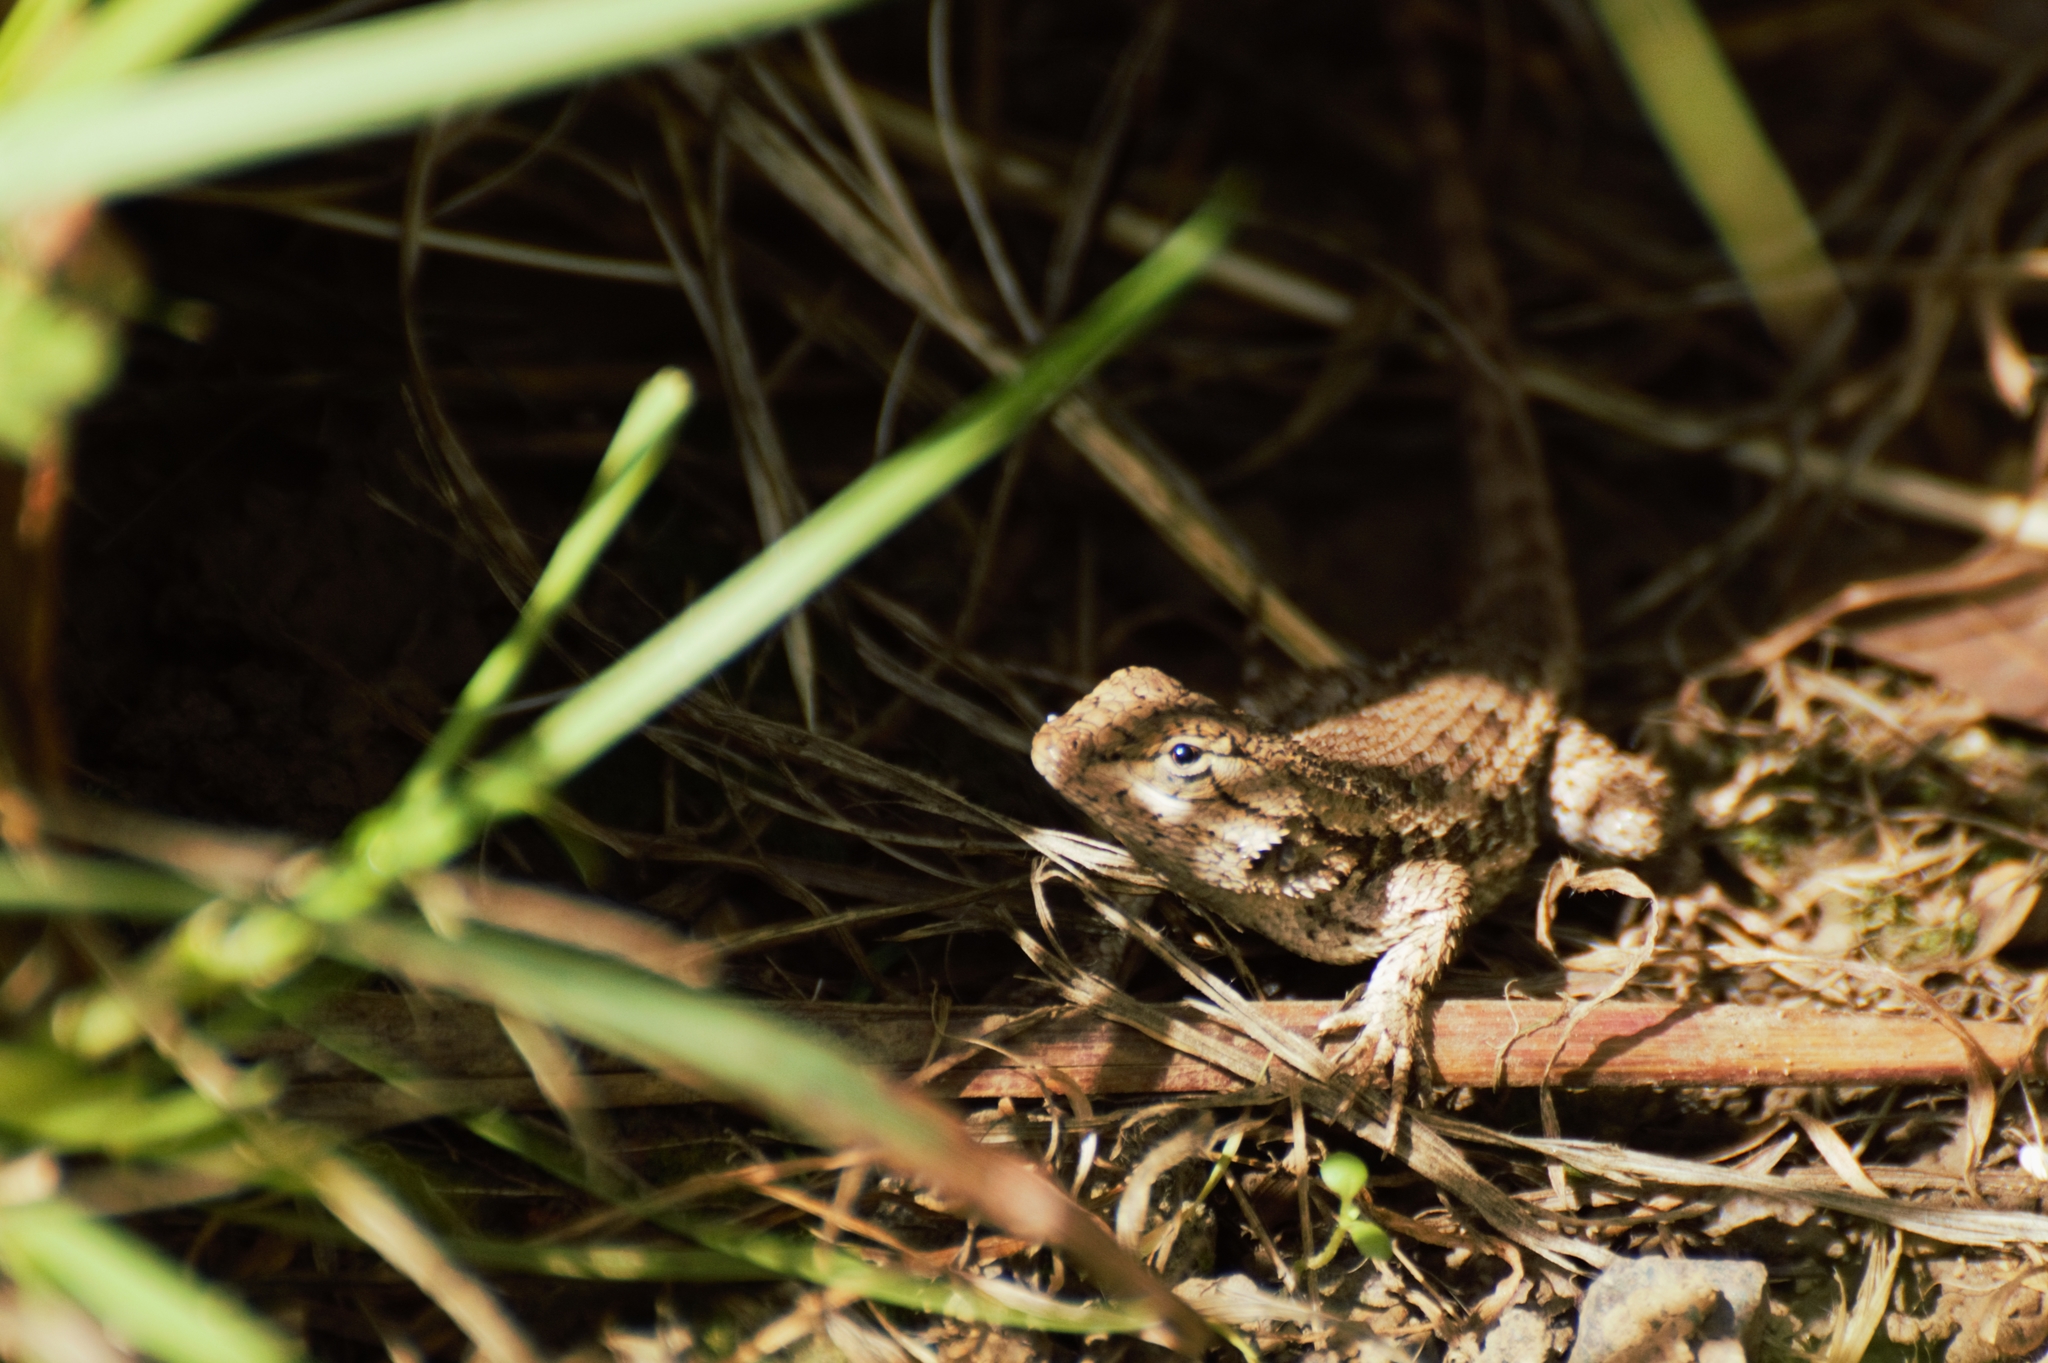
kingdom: Animalia
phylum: Chordata
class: Squamata
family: Phrynosomatidae
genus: Sceloporus
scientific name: Sceloporus occidentalis
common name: Western fence lizard
